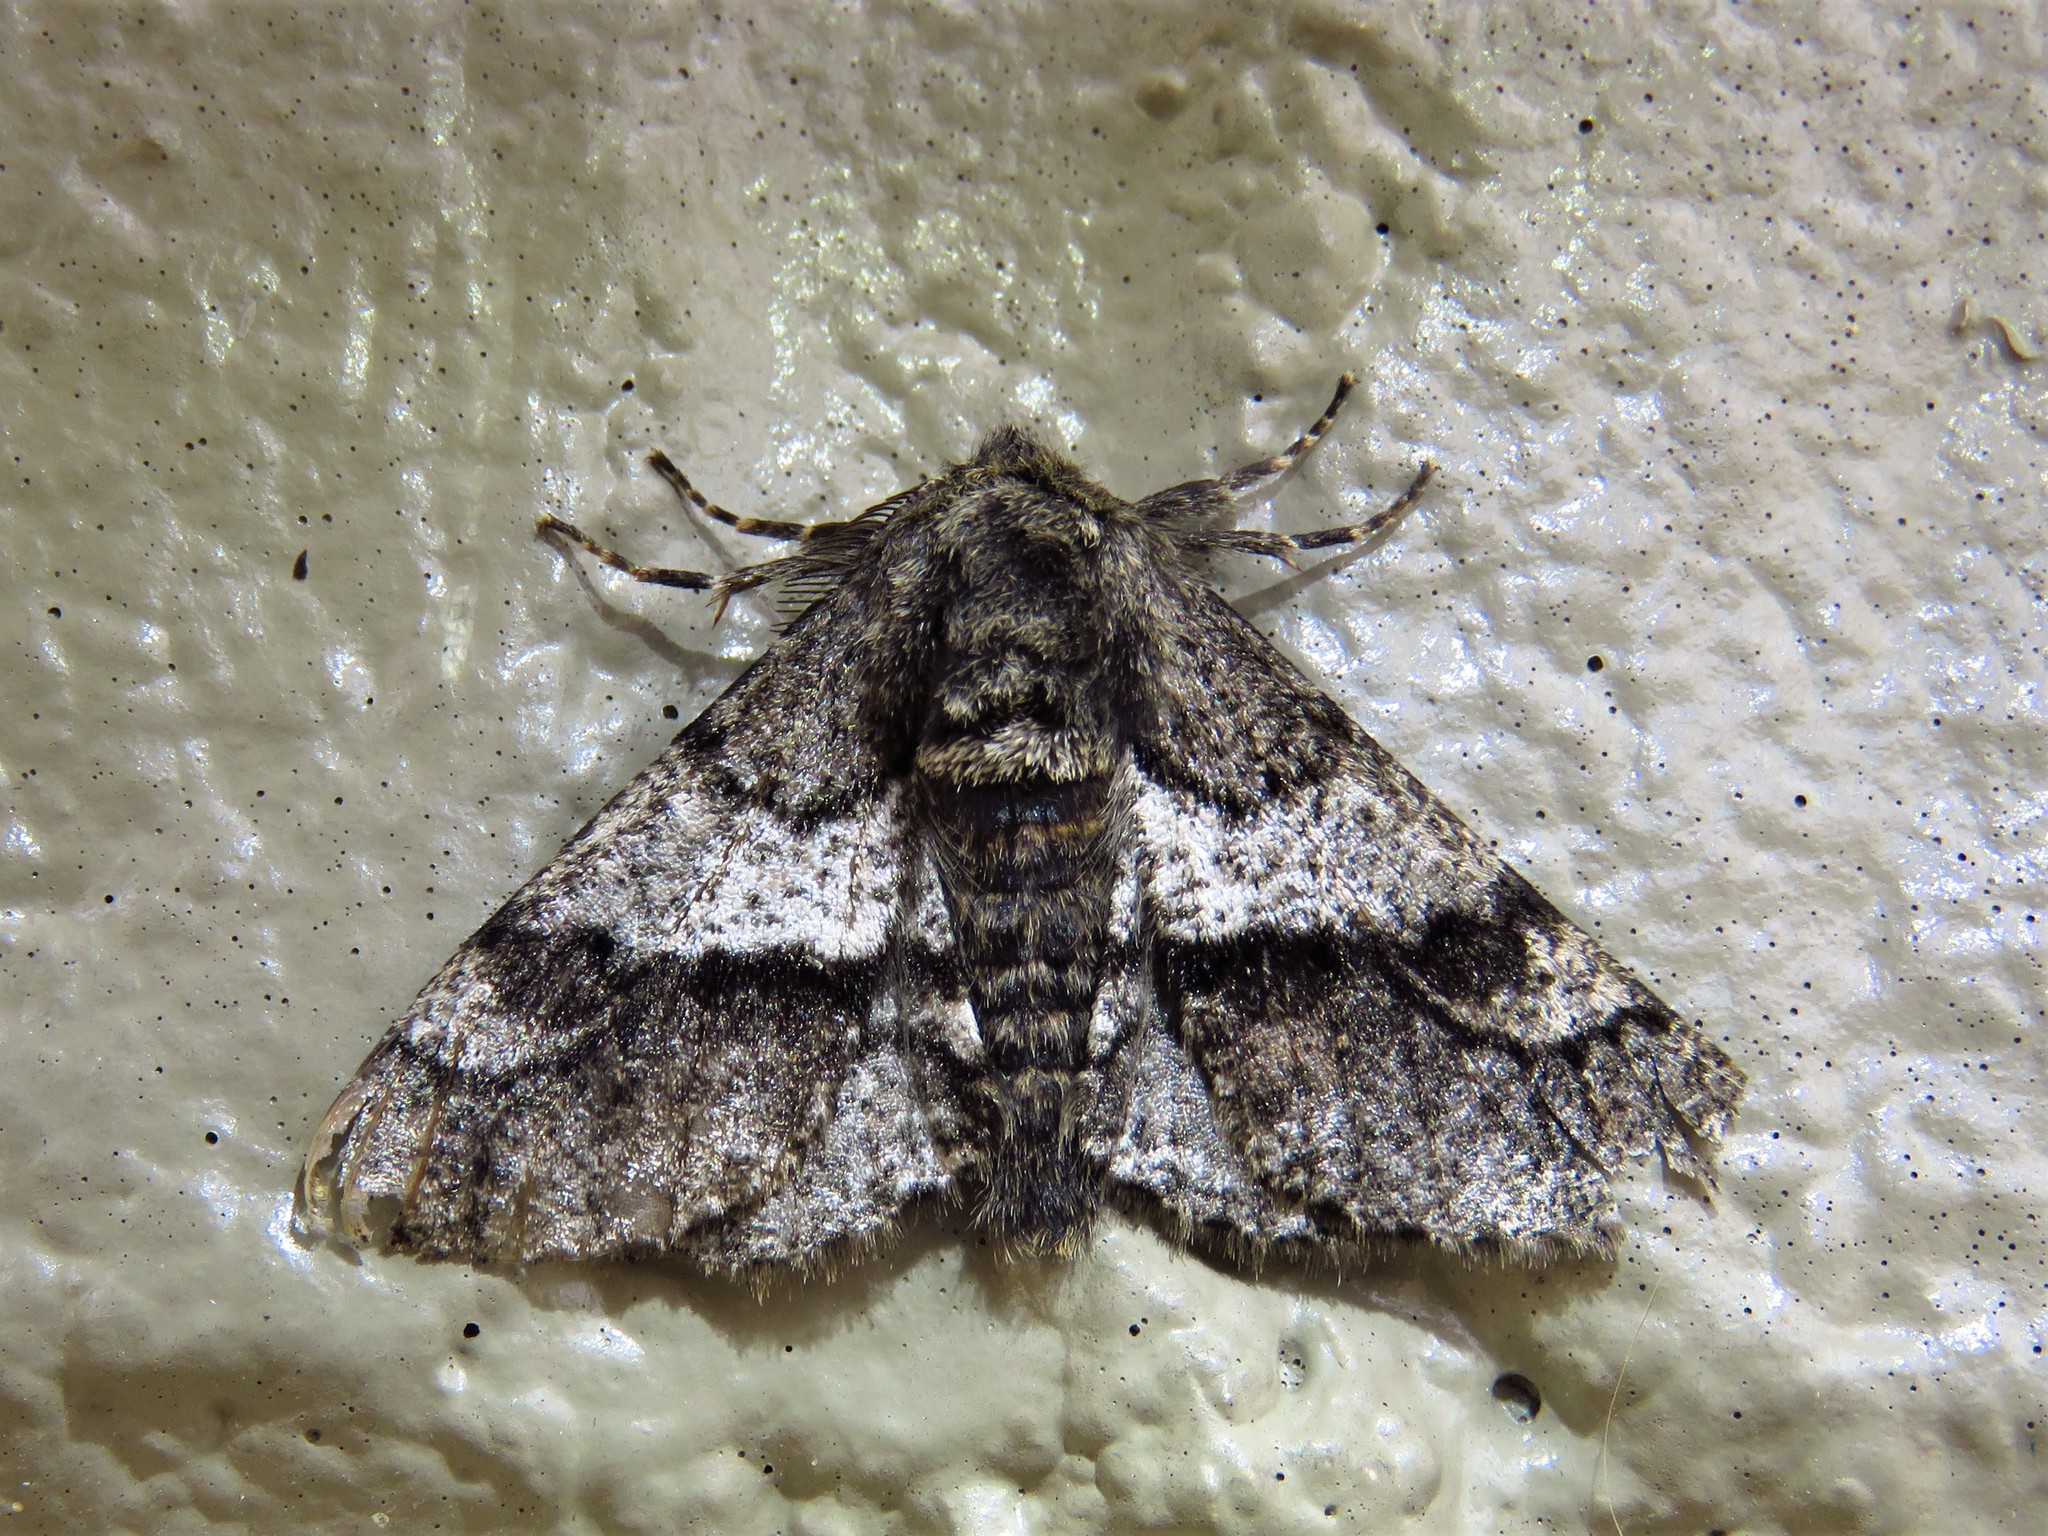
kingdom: Animalia
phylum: Arthropoda
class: Insecta
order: Lepidoptera
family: Geometridae
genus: Lycia
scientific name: Lycia ypsilon
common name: Wooly gray
